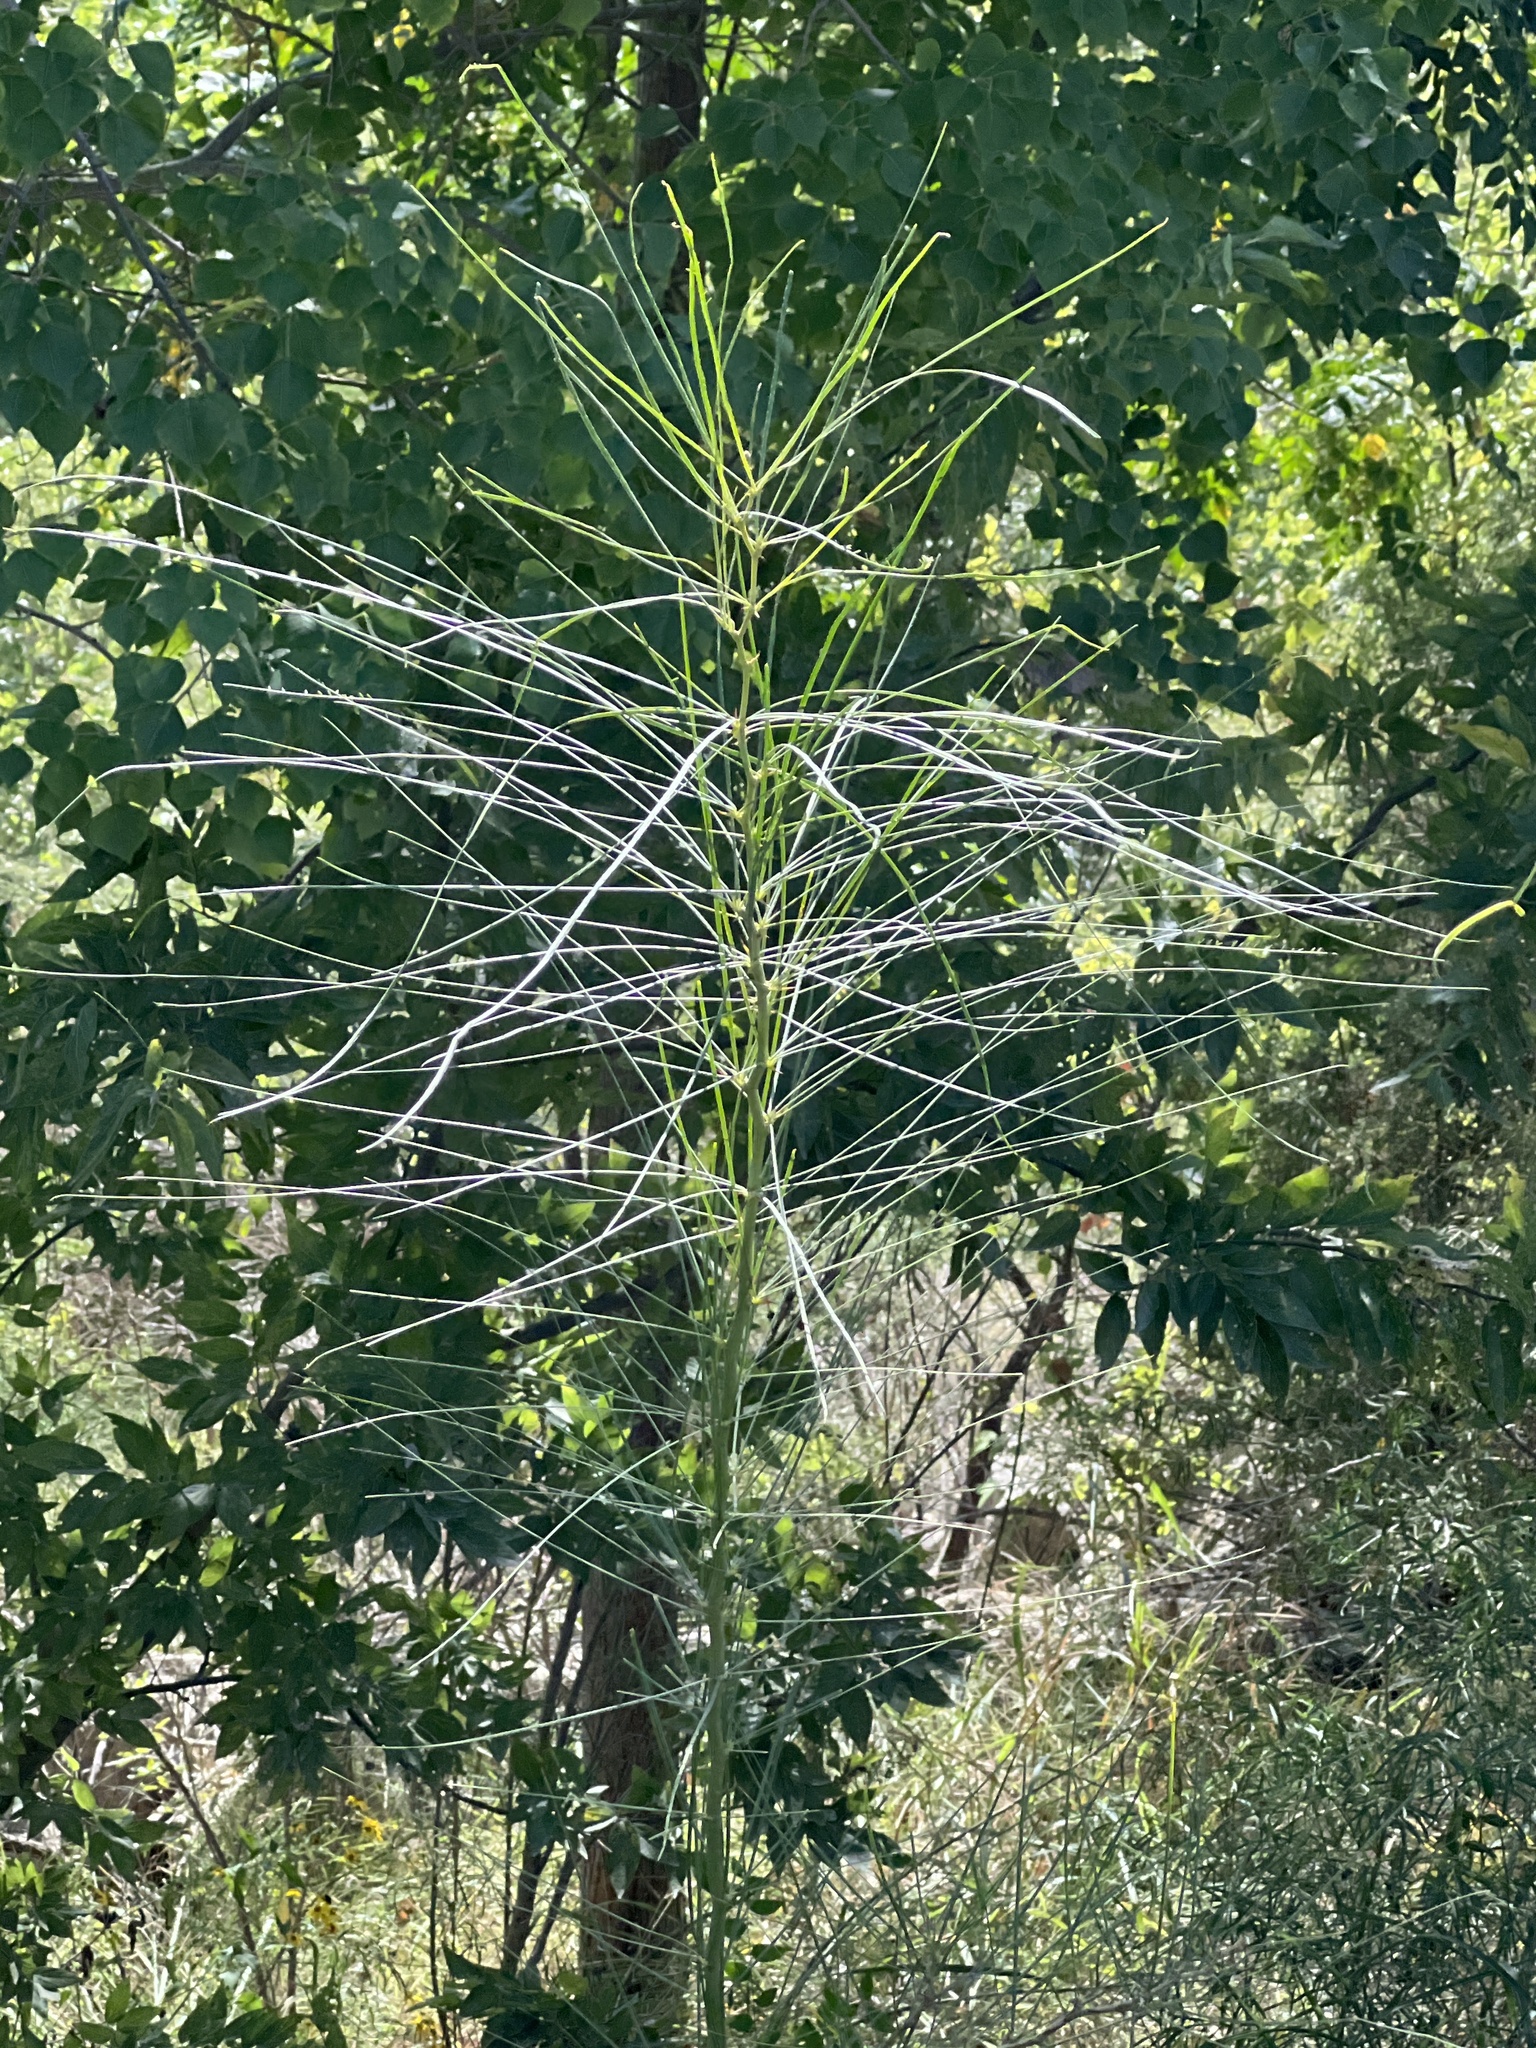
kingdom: Plantae
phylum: Tracheophyta
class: Magnoliopsida
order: Fabales
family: Fabaceae
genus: Parkinsonia
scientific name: Parkinsonia aculeata
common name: Jerusalem thorn
